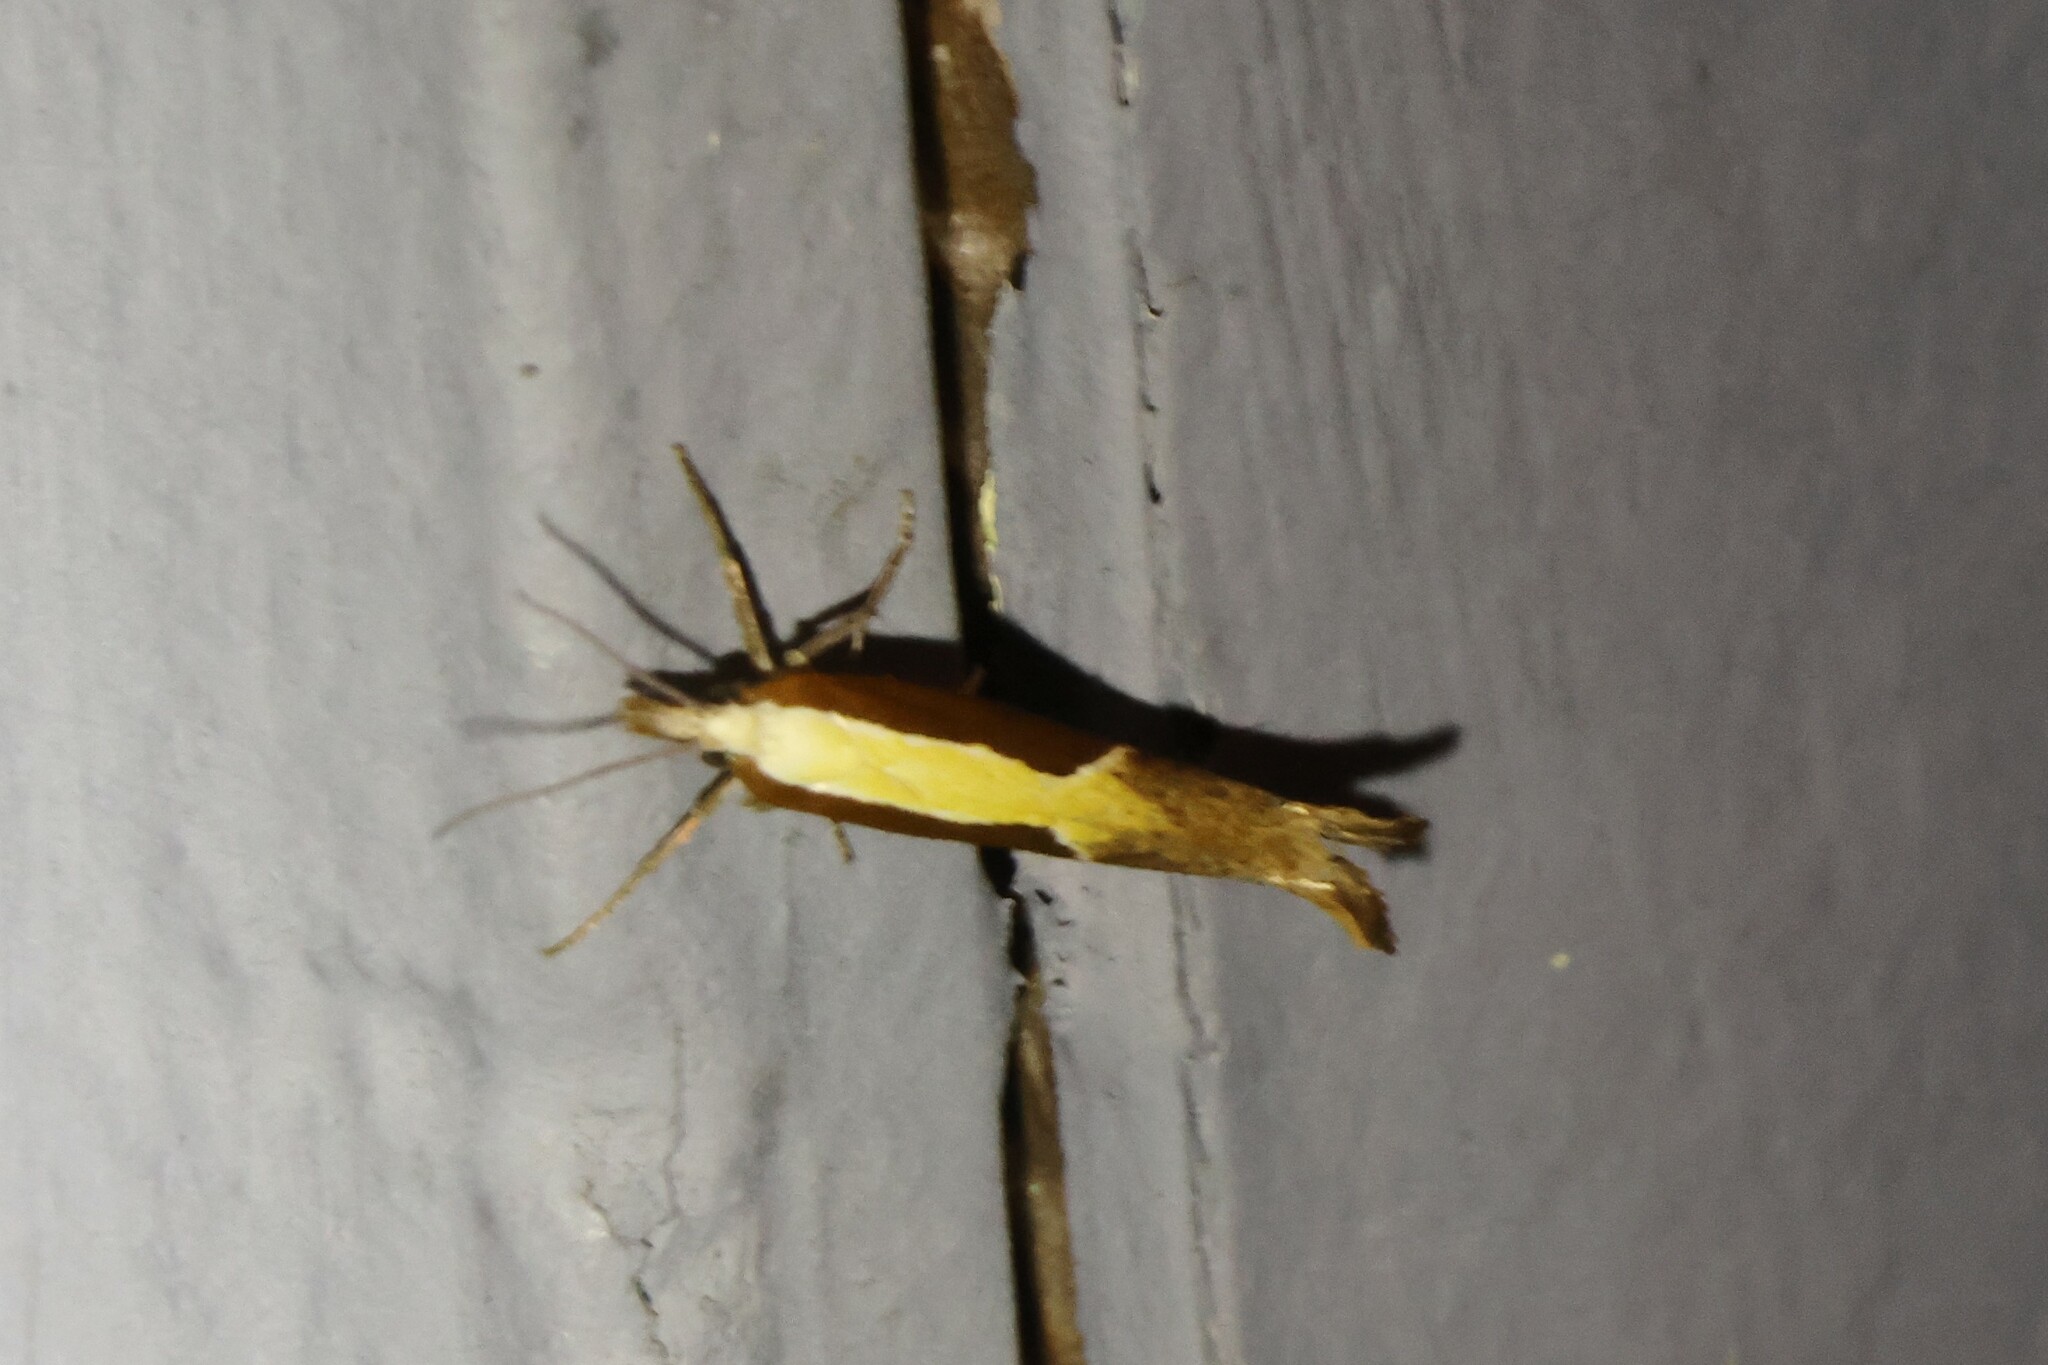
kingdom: Animalia
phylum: Arthropoda
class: Insecta
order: Lepidoptera
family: Ypsolophidae
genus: Ypsolopha
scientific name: Ypsolopha dentella
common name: Honeysuckle moth
